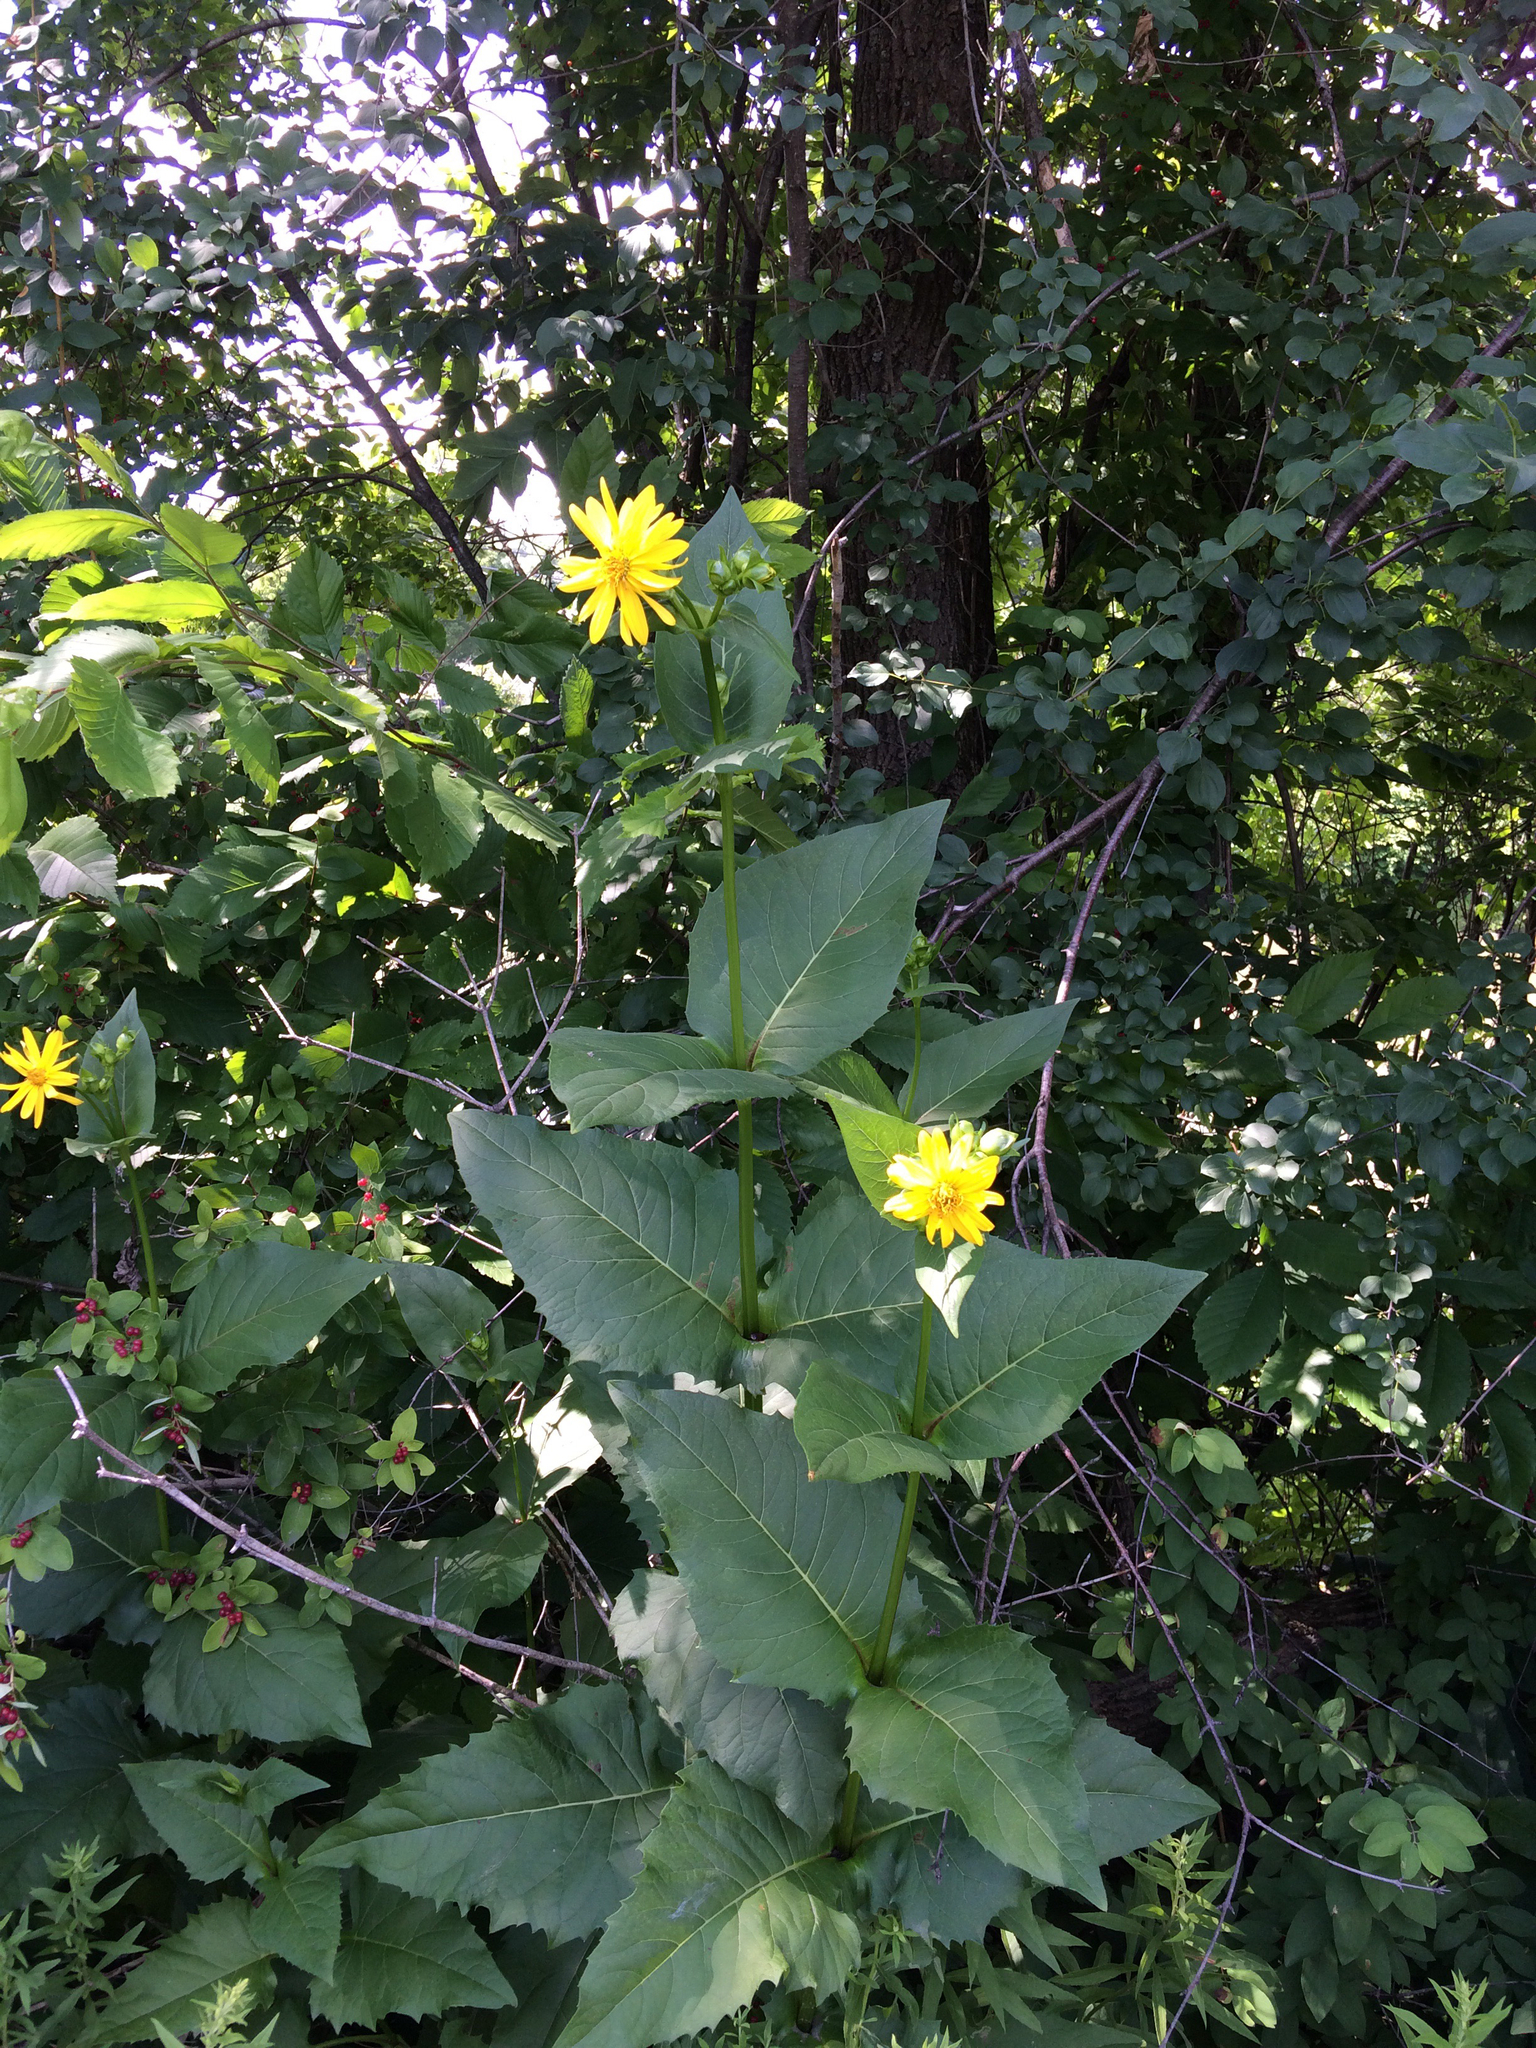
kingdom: Plantae
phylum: Tracheophyta
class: Magnoliopsida
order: Asterales
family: Asteraceae
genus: Silphium
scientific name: Silphium perfoliatum
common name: Cup-plant
